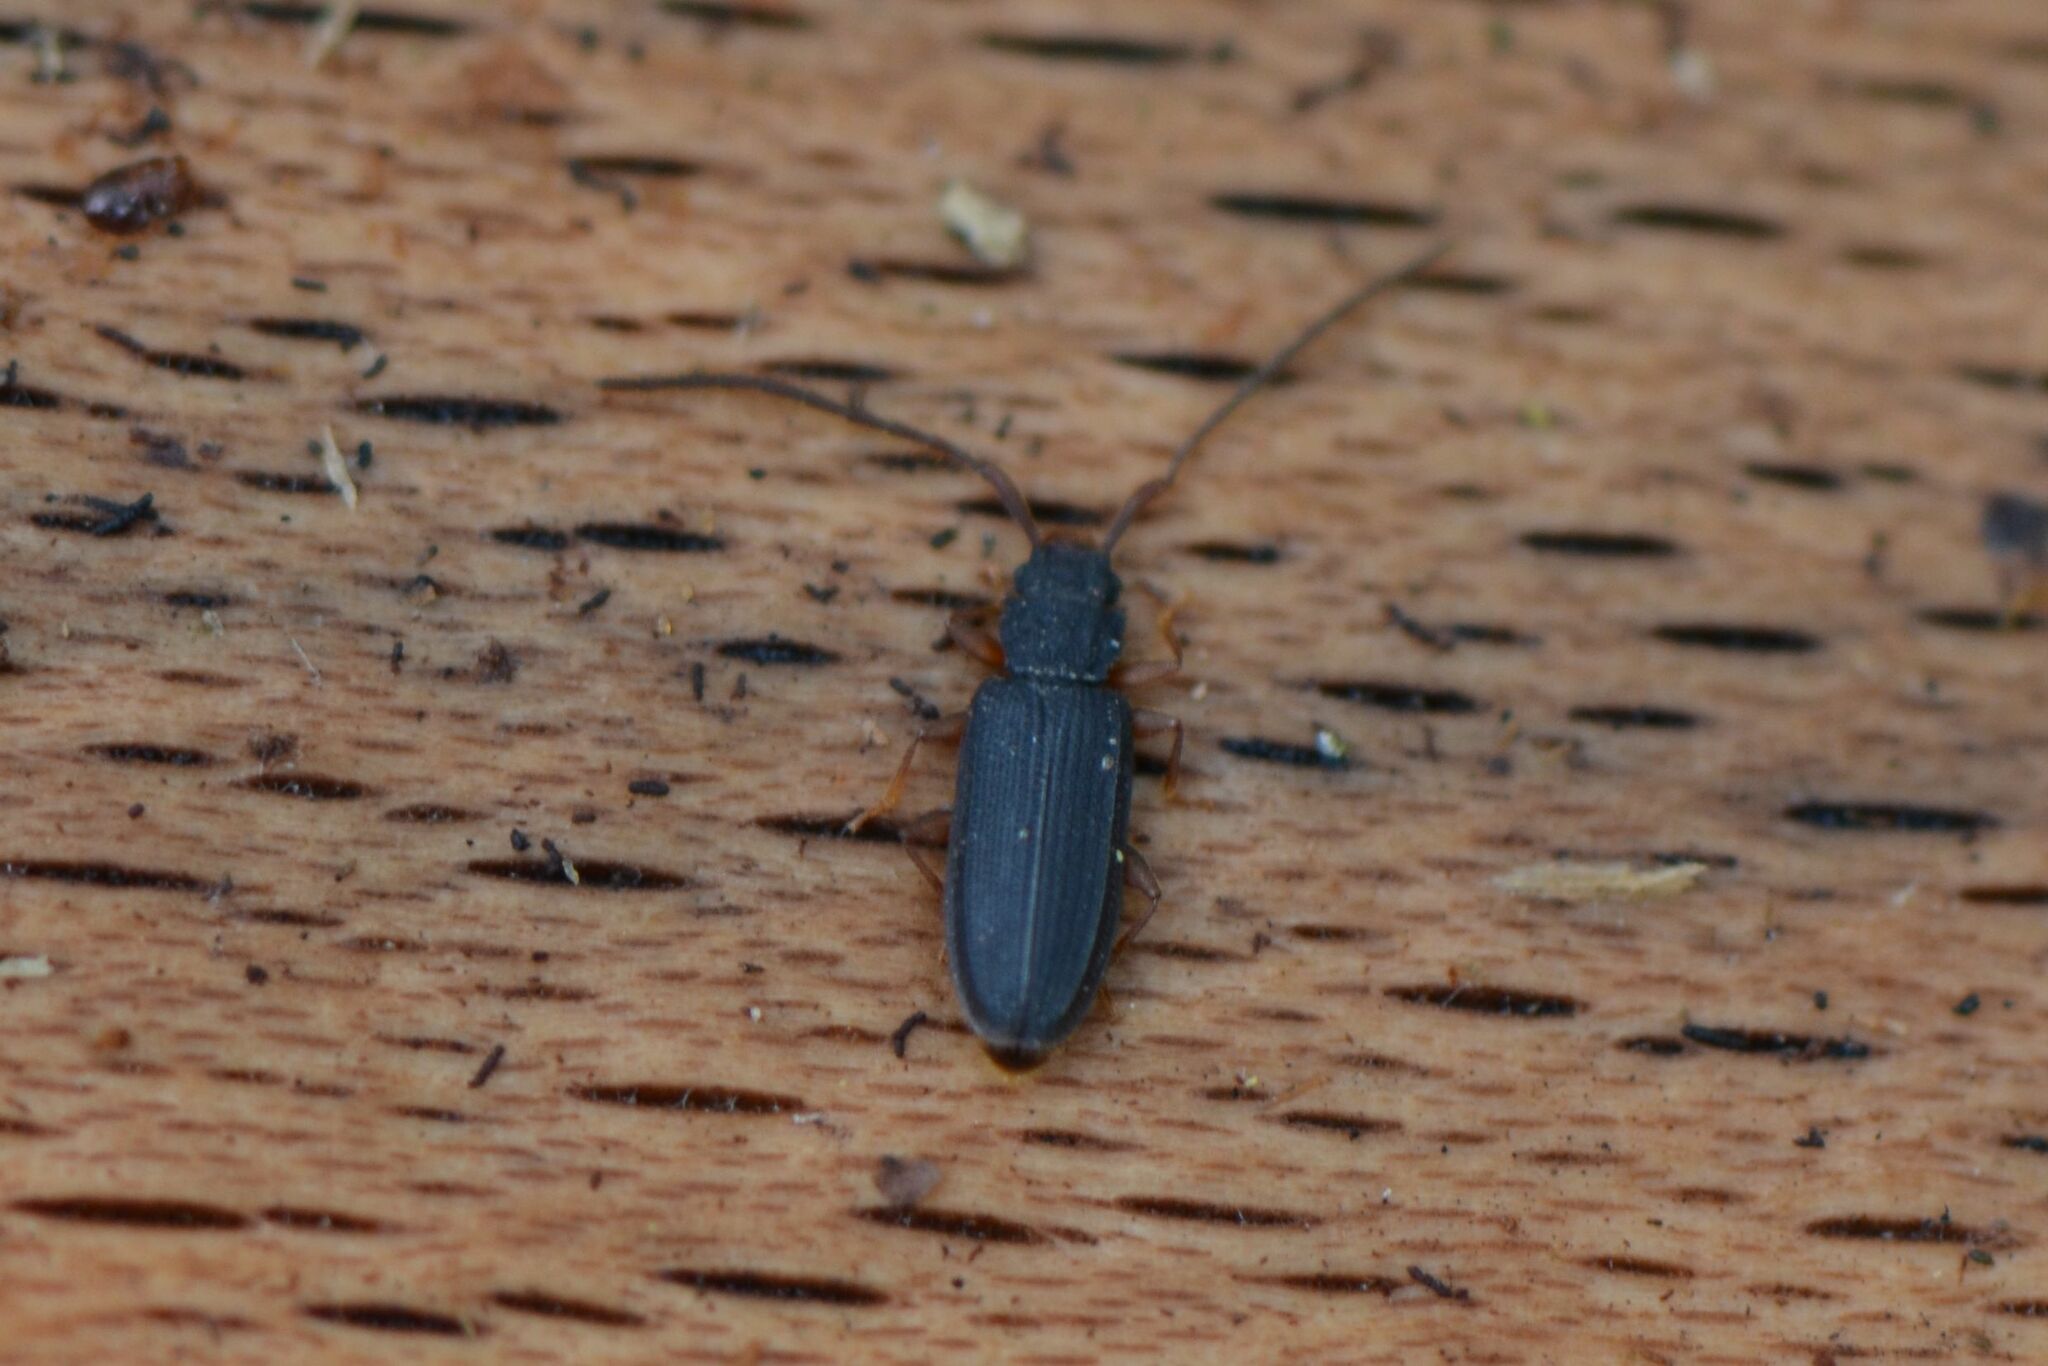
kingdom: Animalia
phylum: Arthropoda
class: Insecta
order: Coleoptera
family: Silvanidae
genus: Uleiota
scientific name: Uleiota planatus
